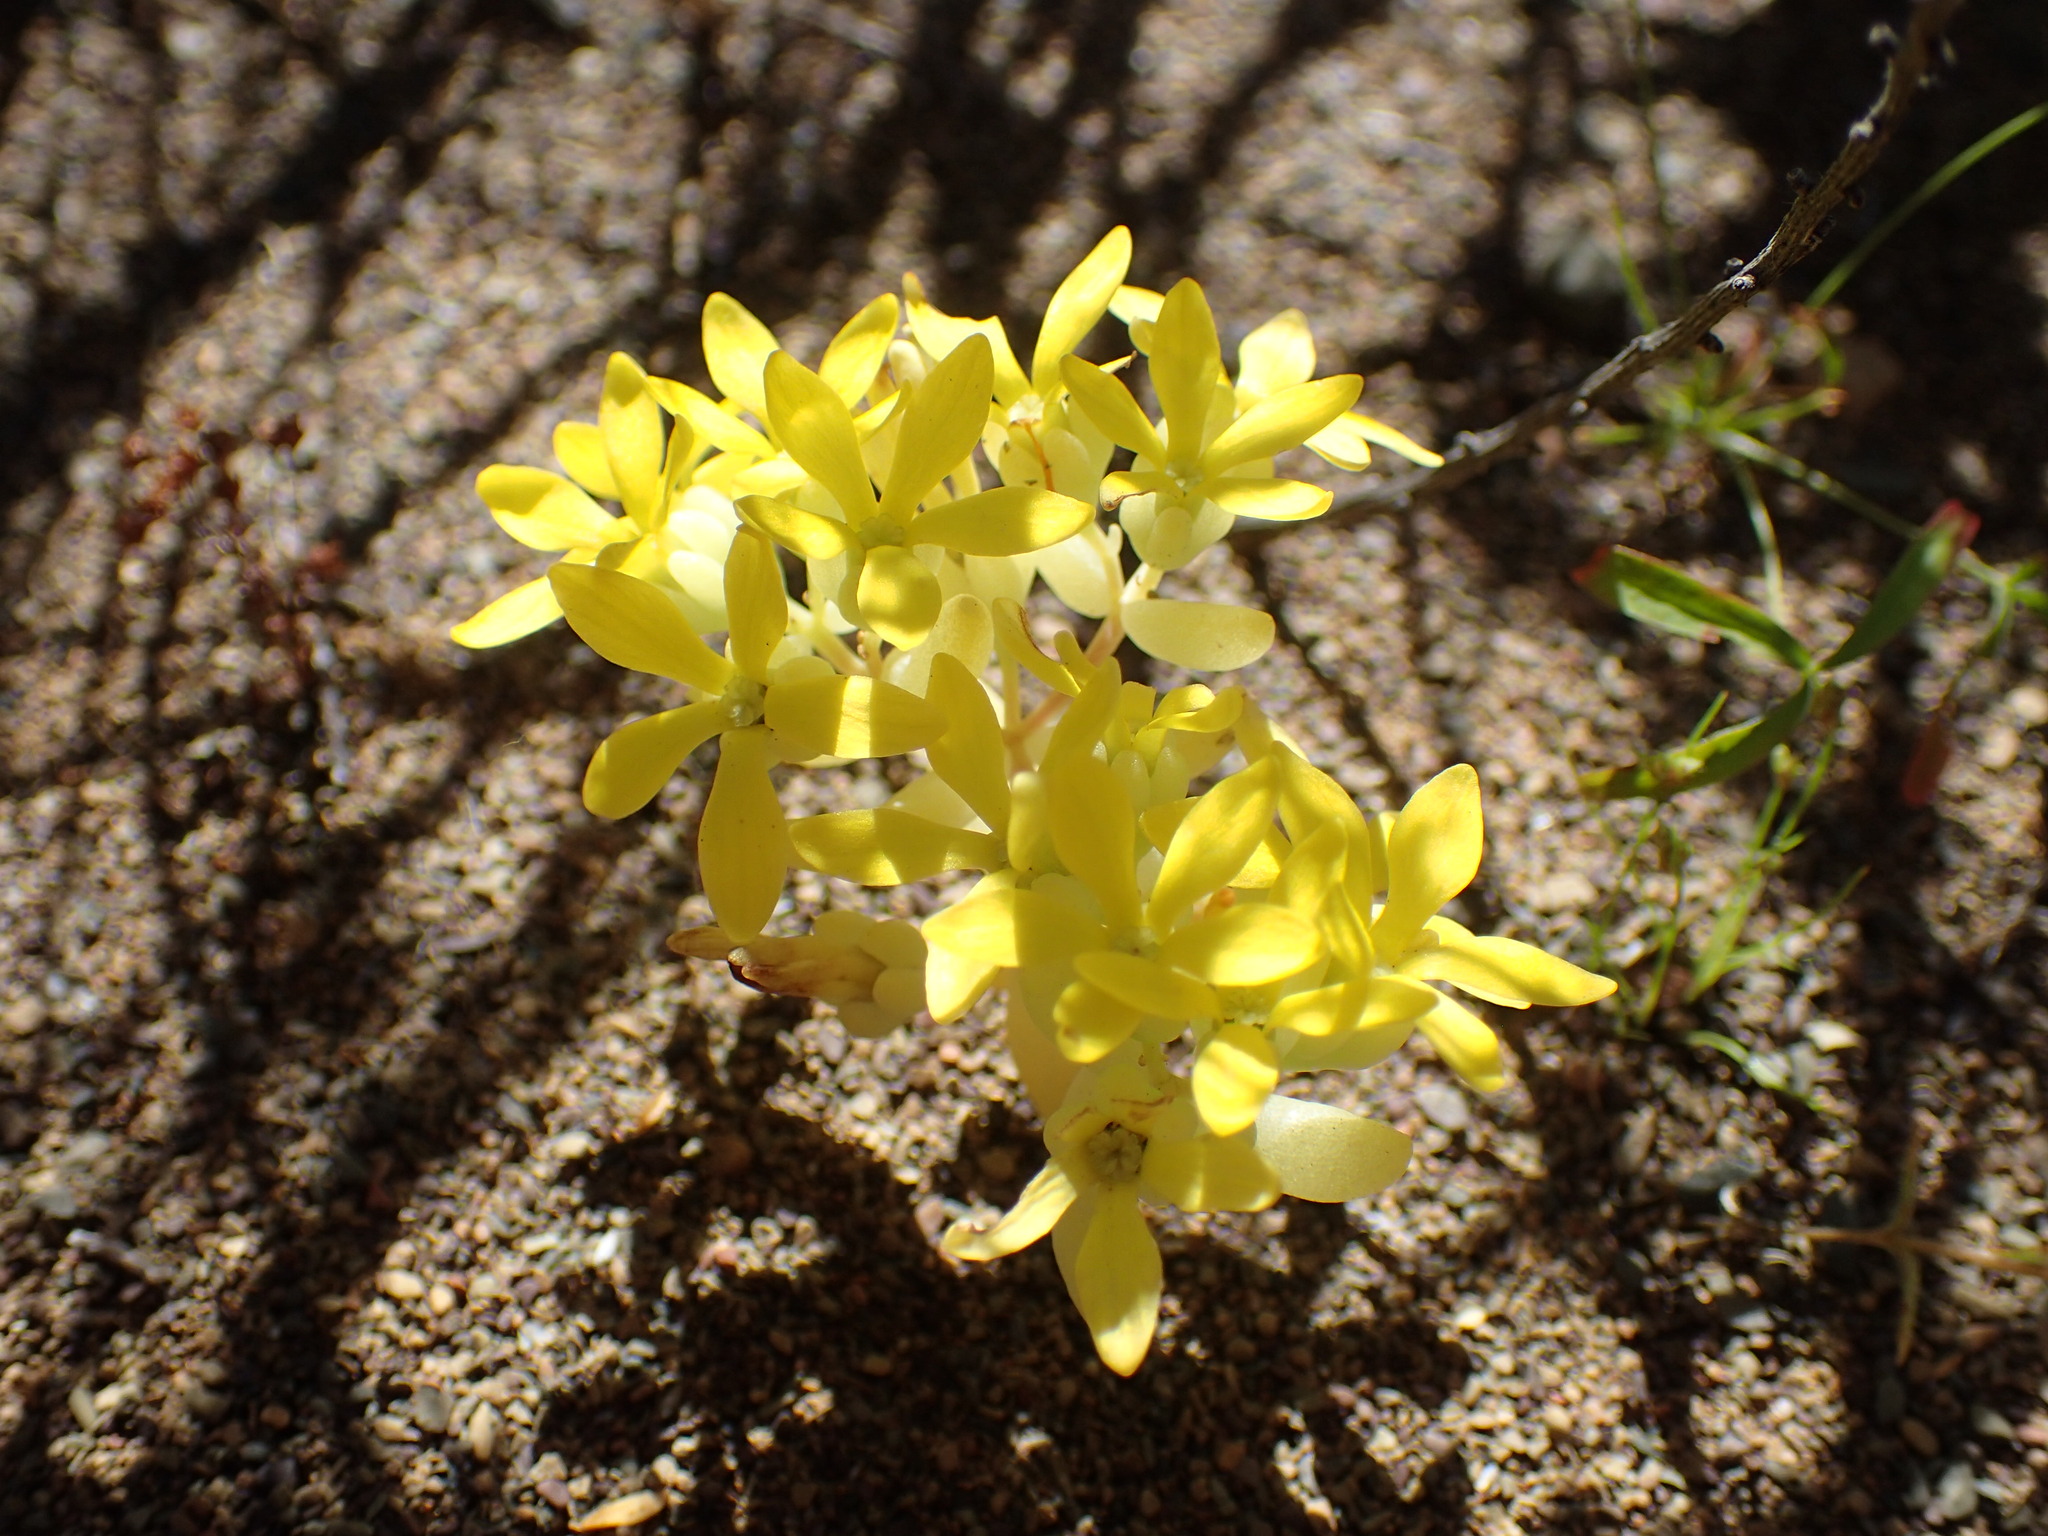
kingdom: Plantae
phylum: Tracheophyta
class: Magnoliopsida
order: Saxifragales
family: Crassulaceae
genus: Crassula
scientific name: Crassula sebaeoides
